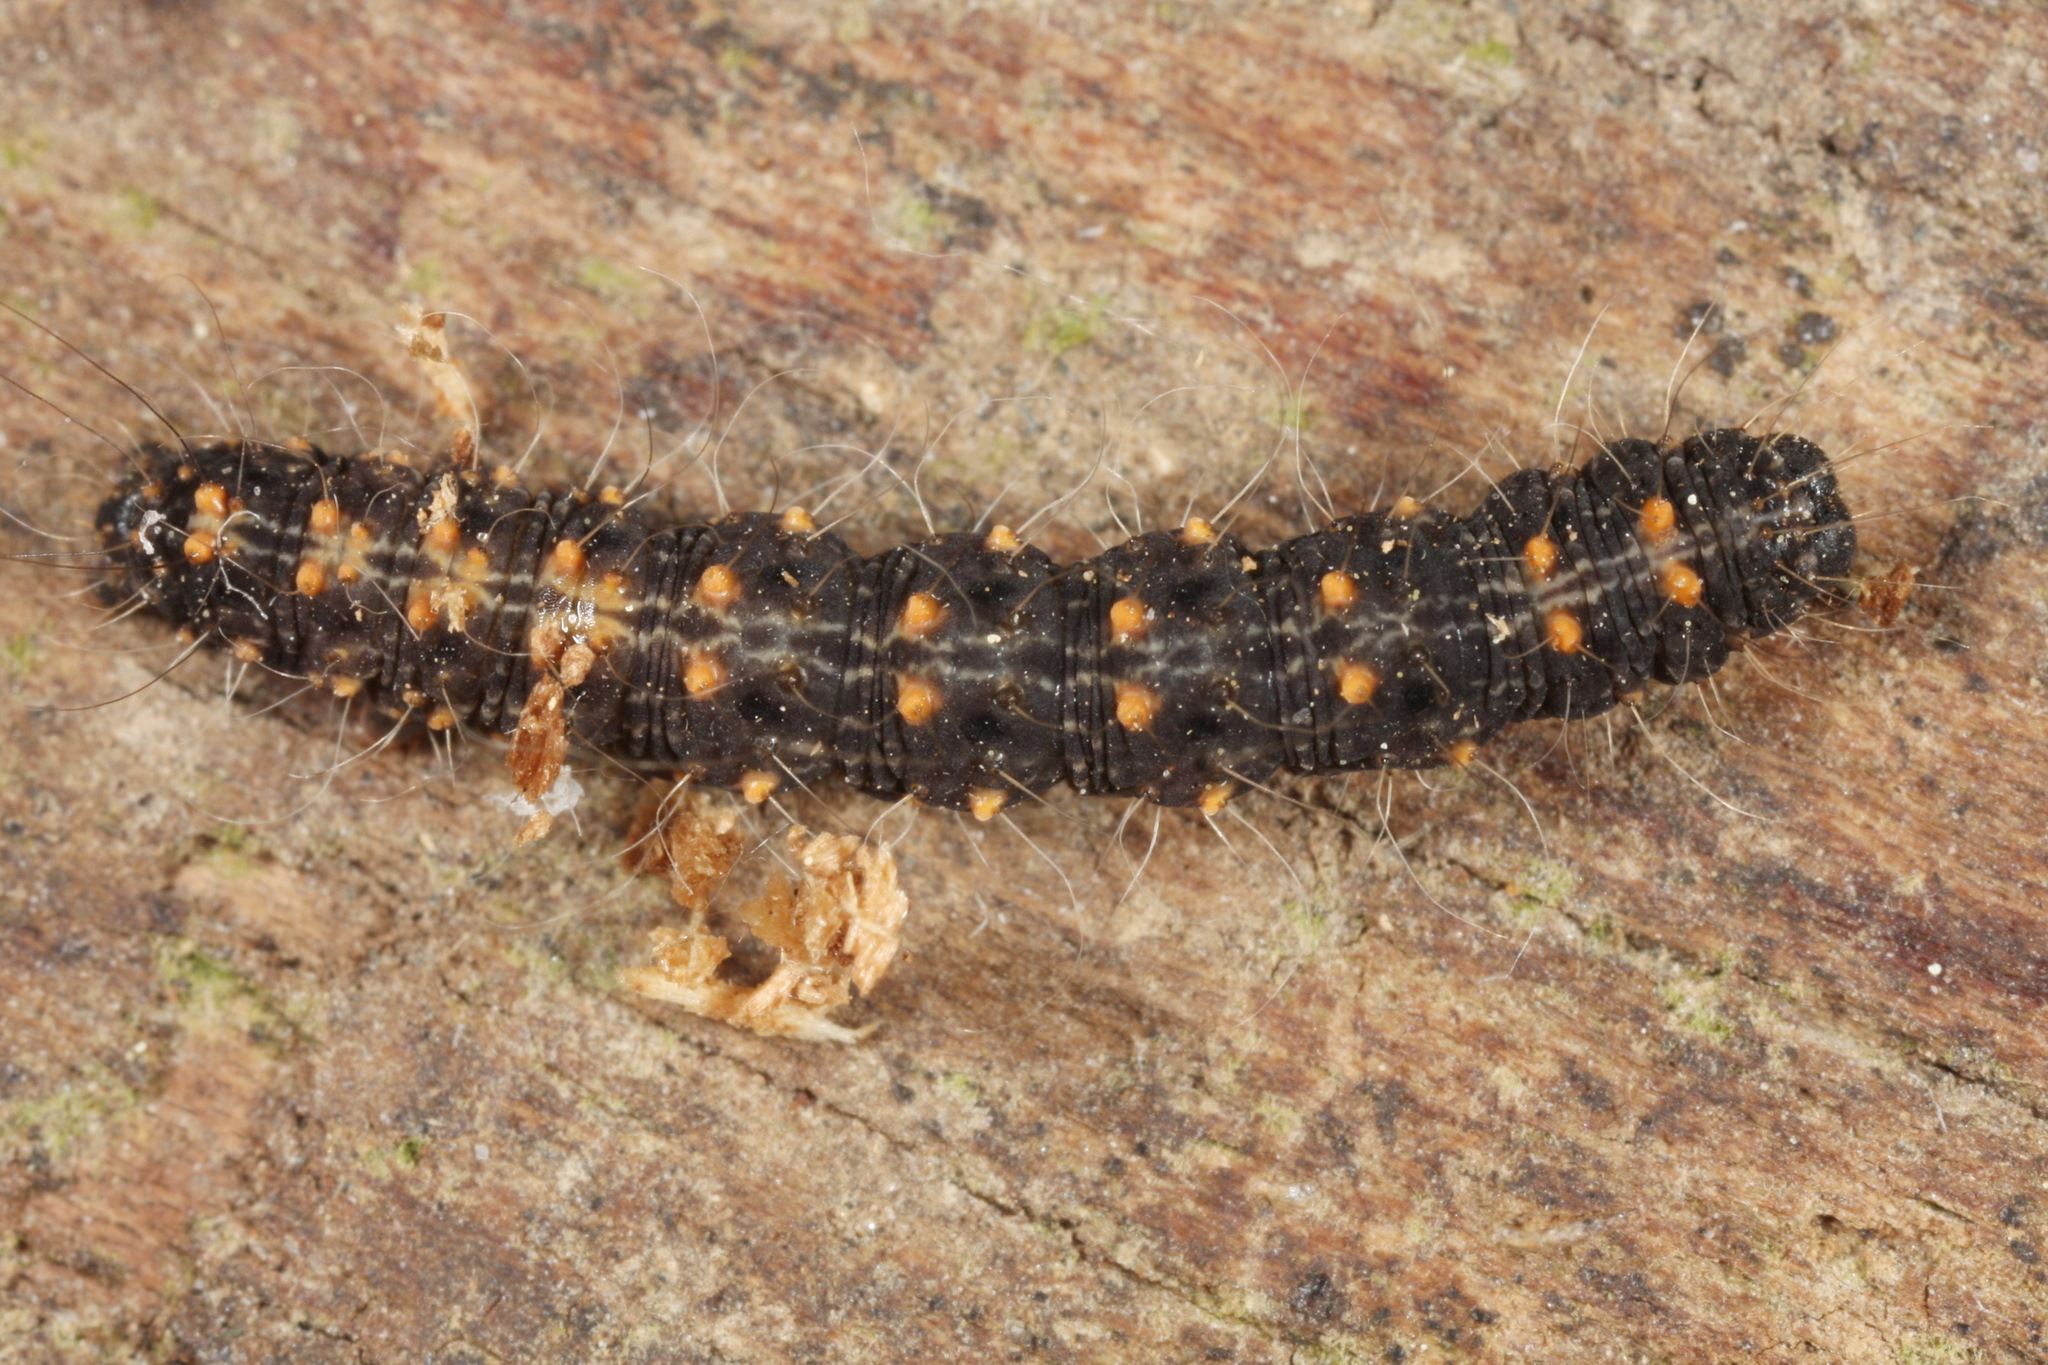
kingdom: Animalia
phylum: Arthropoda
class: Insecta
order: Lepidoptera
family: Erebidae
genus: Parascotia
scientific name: Parascotia fuliginaria
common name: Waved black
